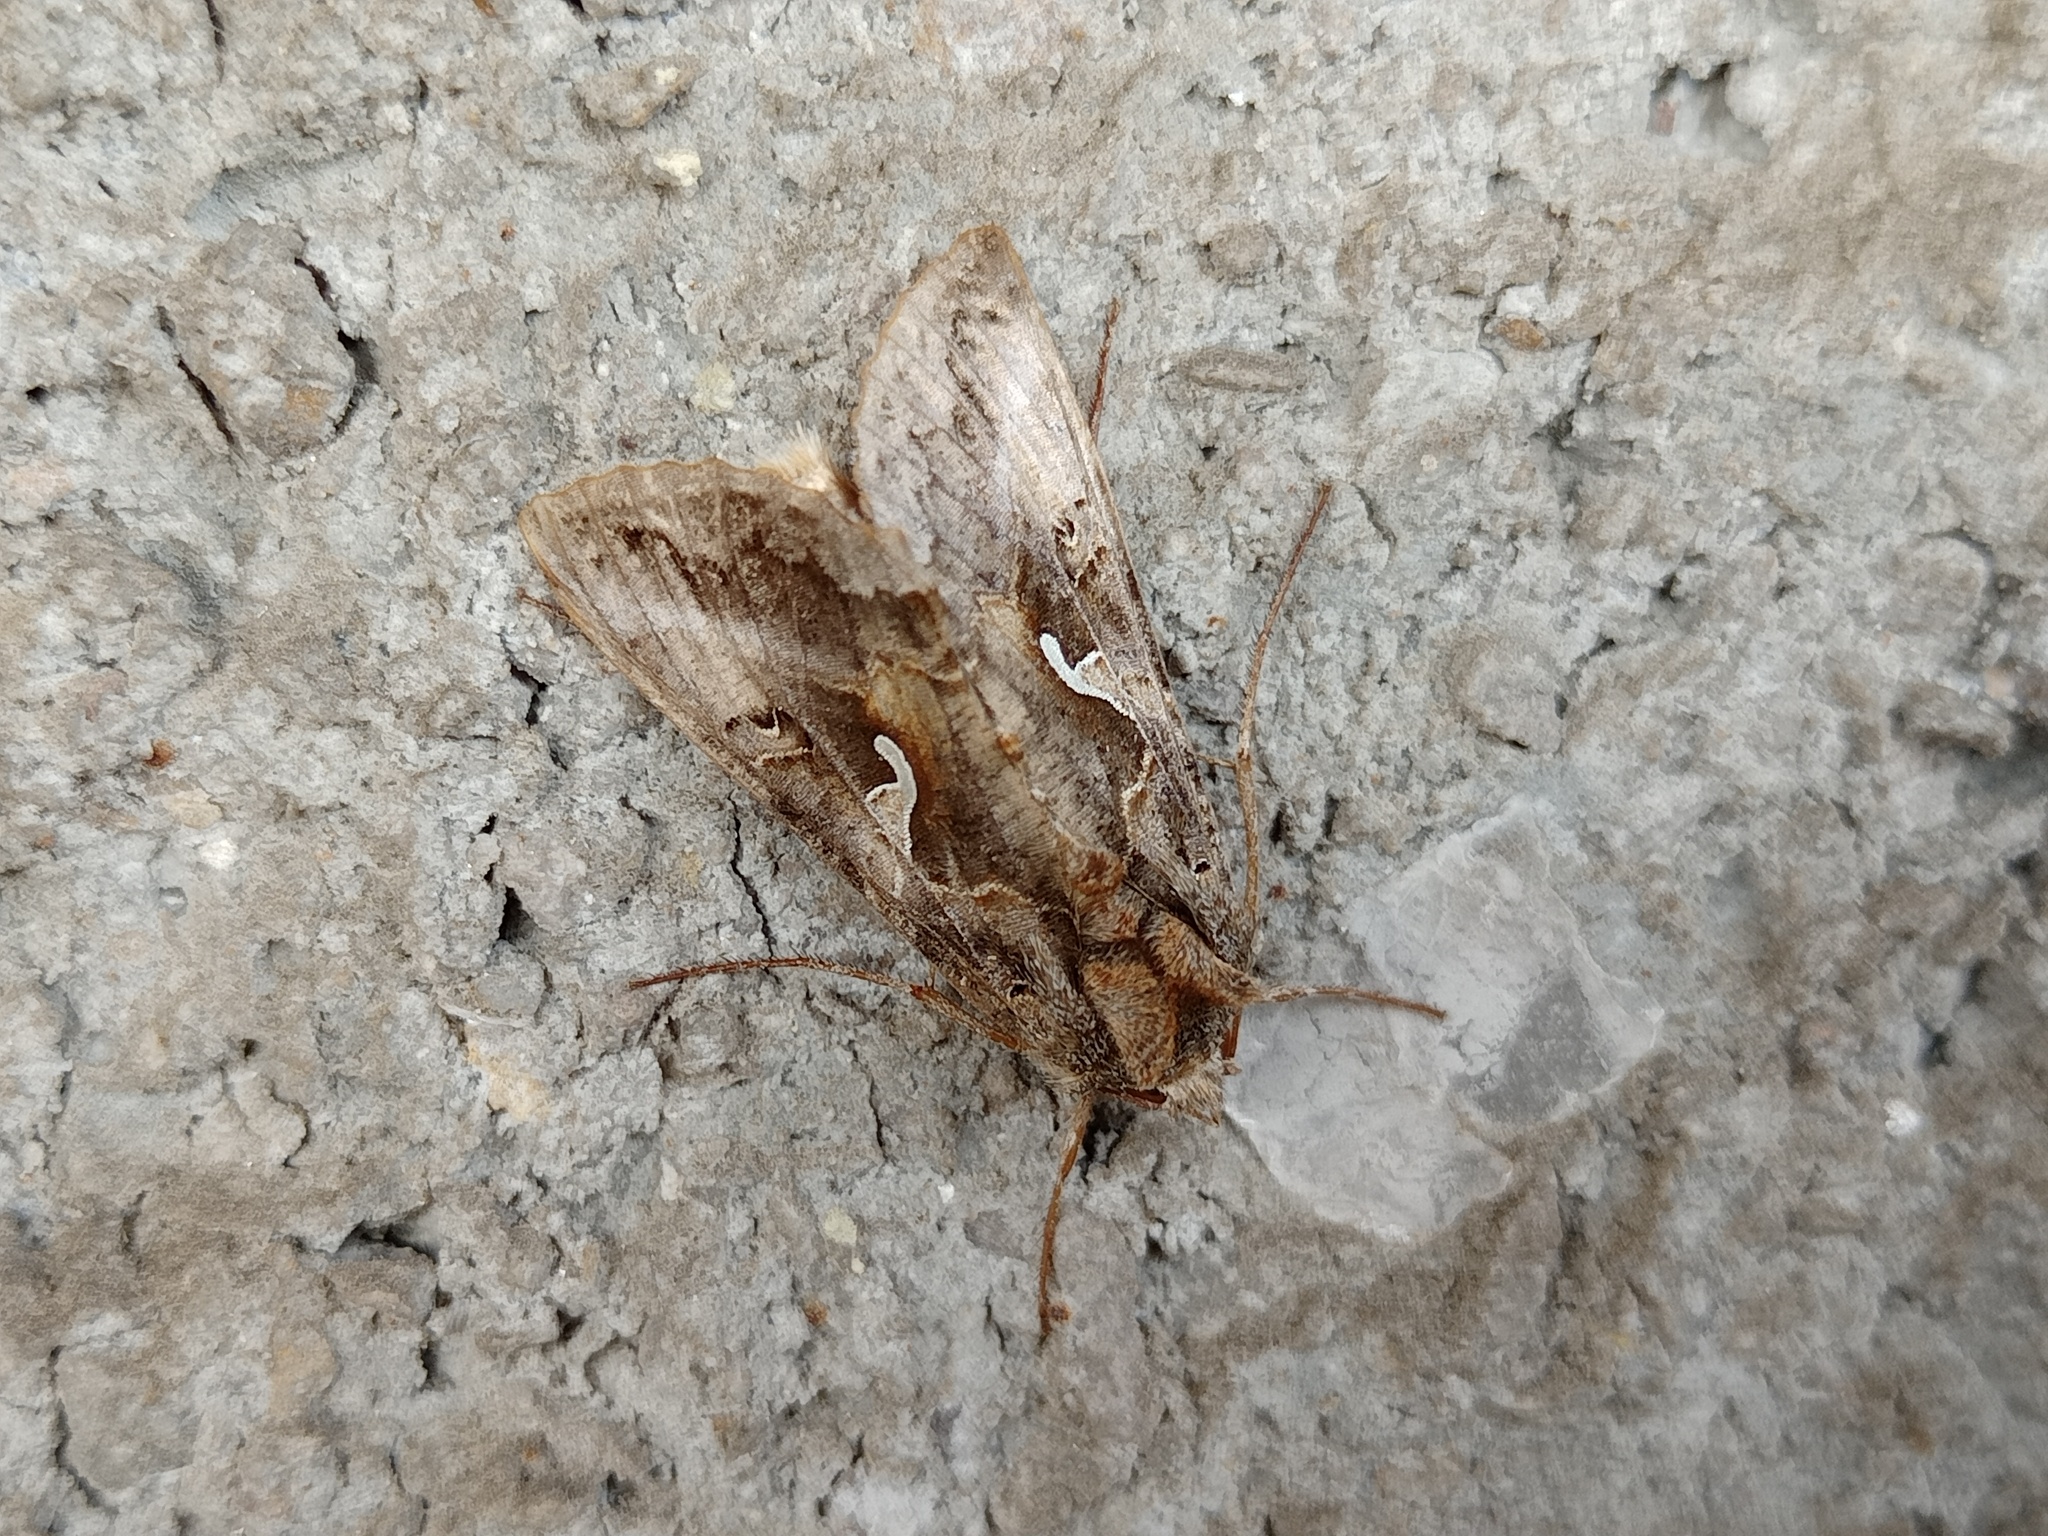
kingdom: Animalia
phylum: Arthropoda
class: Insecta
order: Lepidoptera
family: Noctuidae
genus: Autographa
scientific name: Autographa gamma
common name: Silver y
